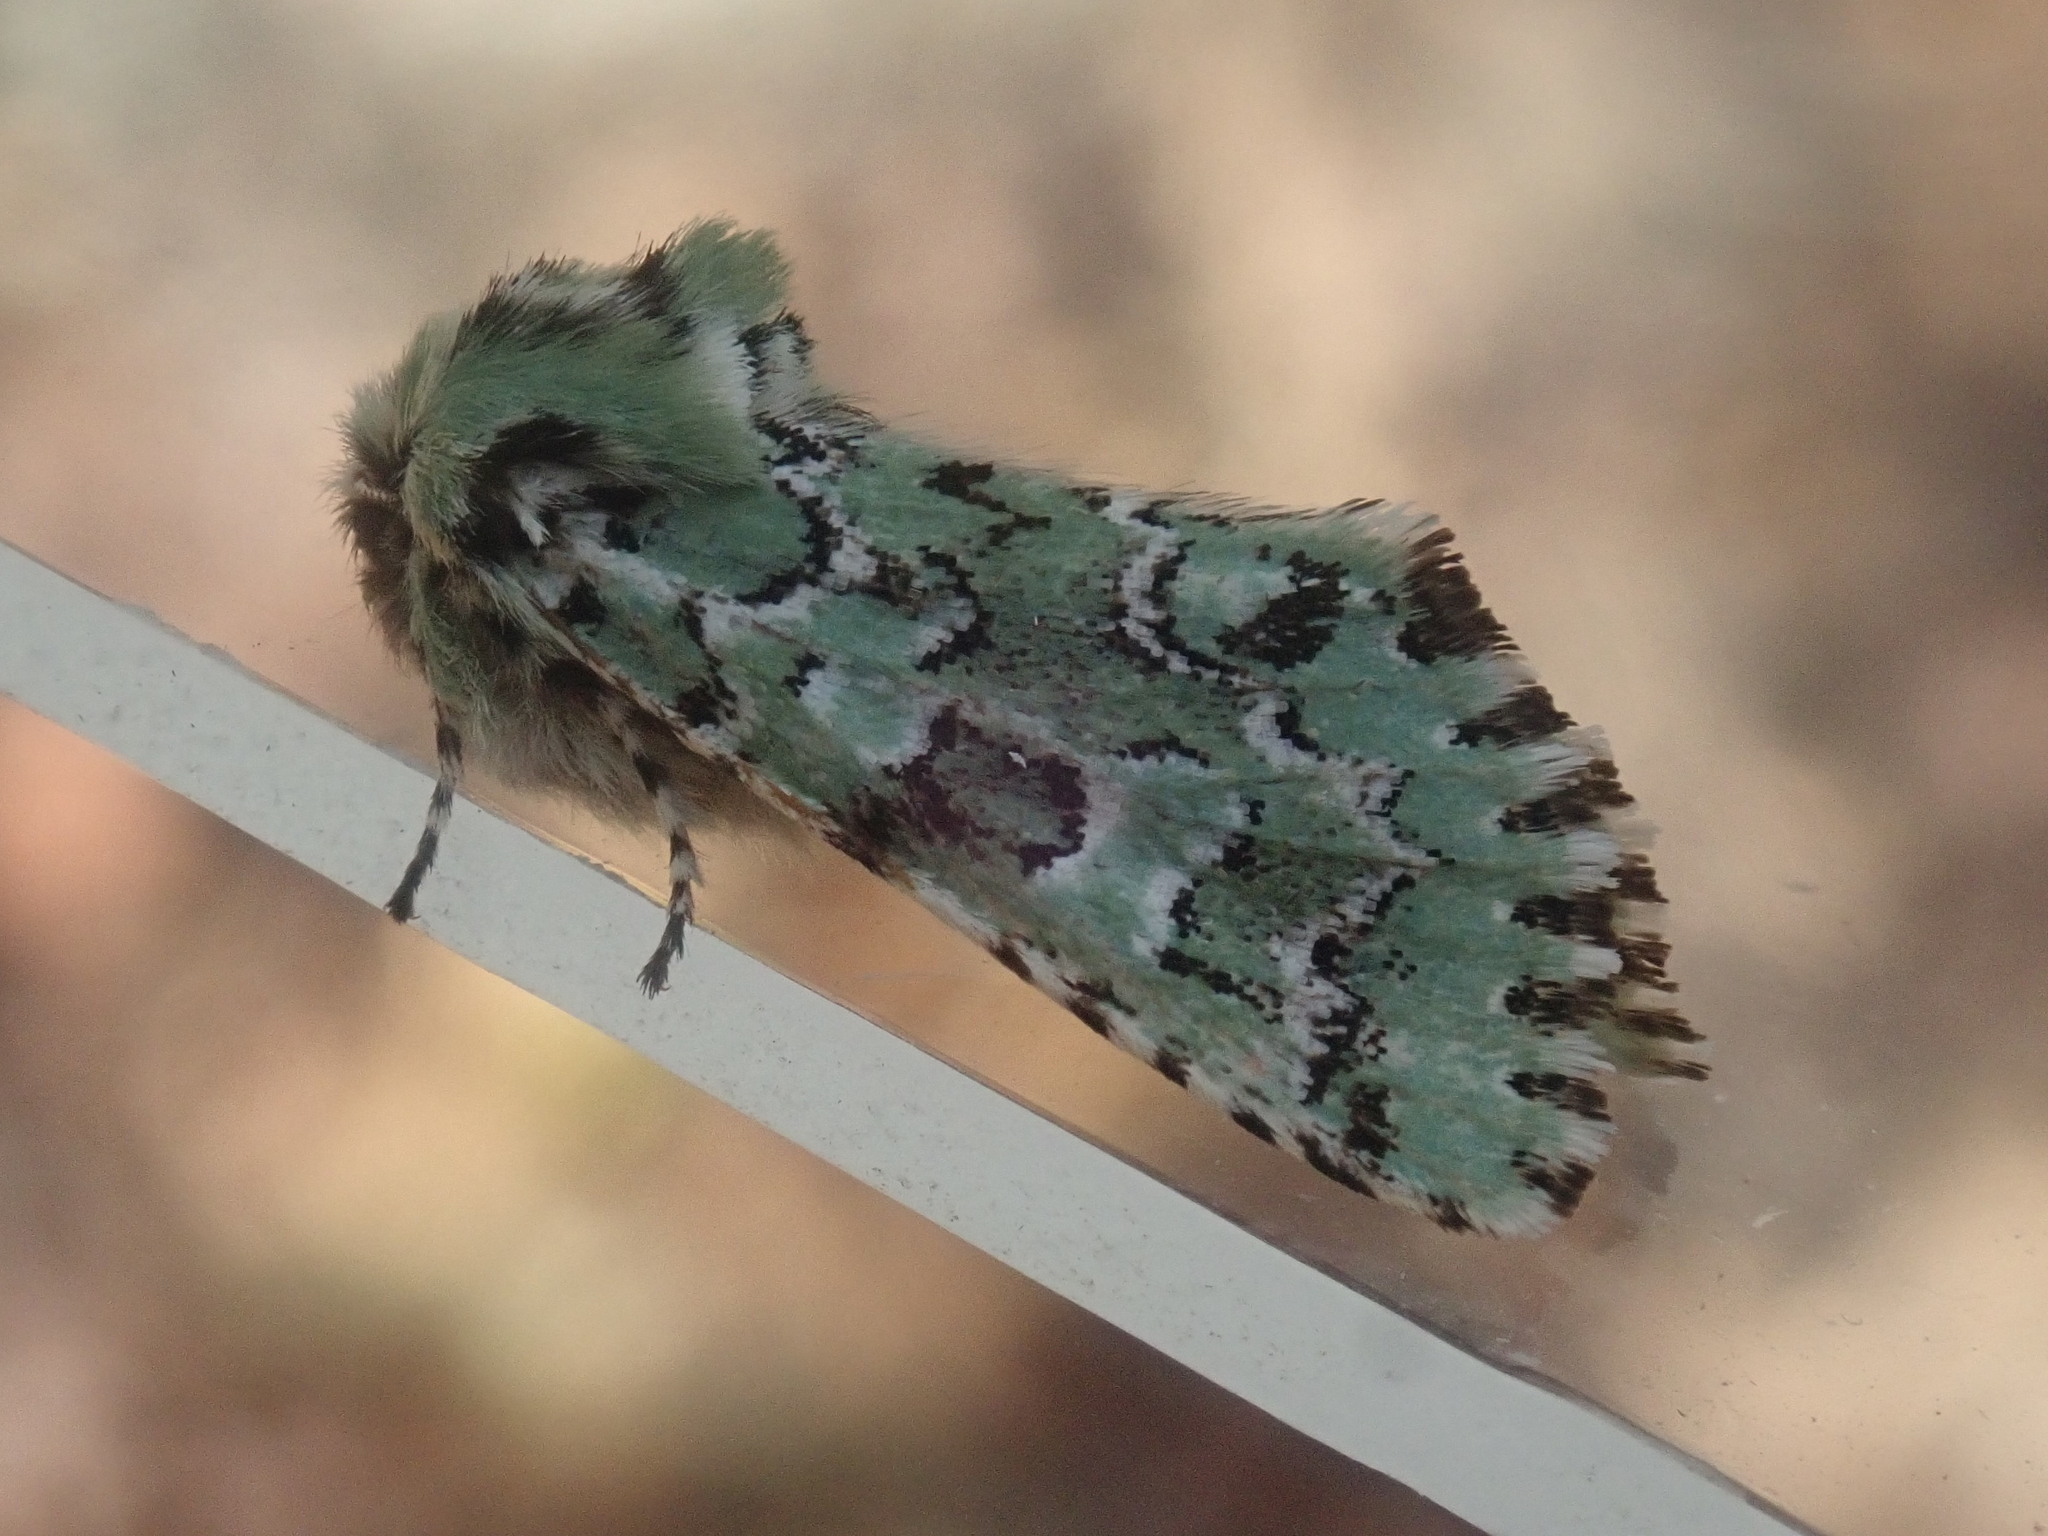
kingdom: Animalia
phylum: Arthropoda
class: Insecta
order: Lepidoptera
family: Noctuidae
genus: Feralia
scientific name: Feralia jocosa
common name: Joker
